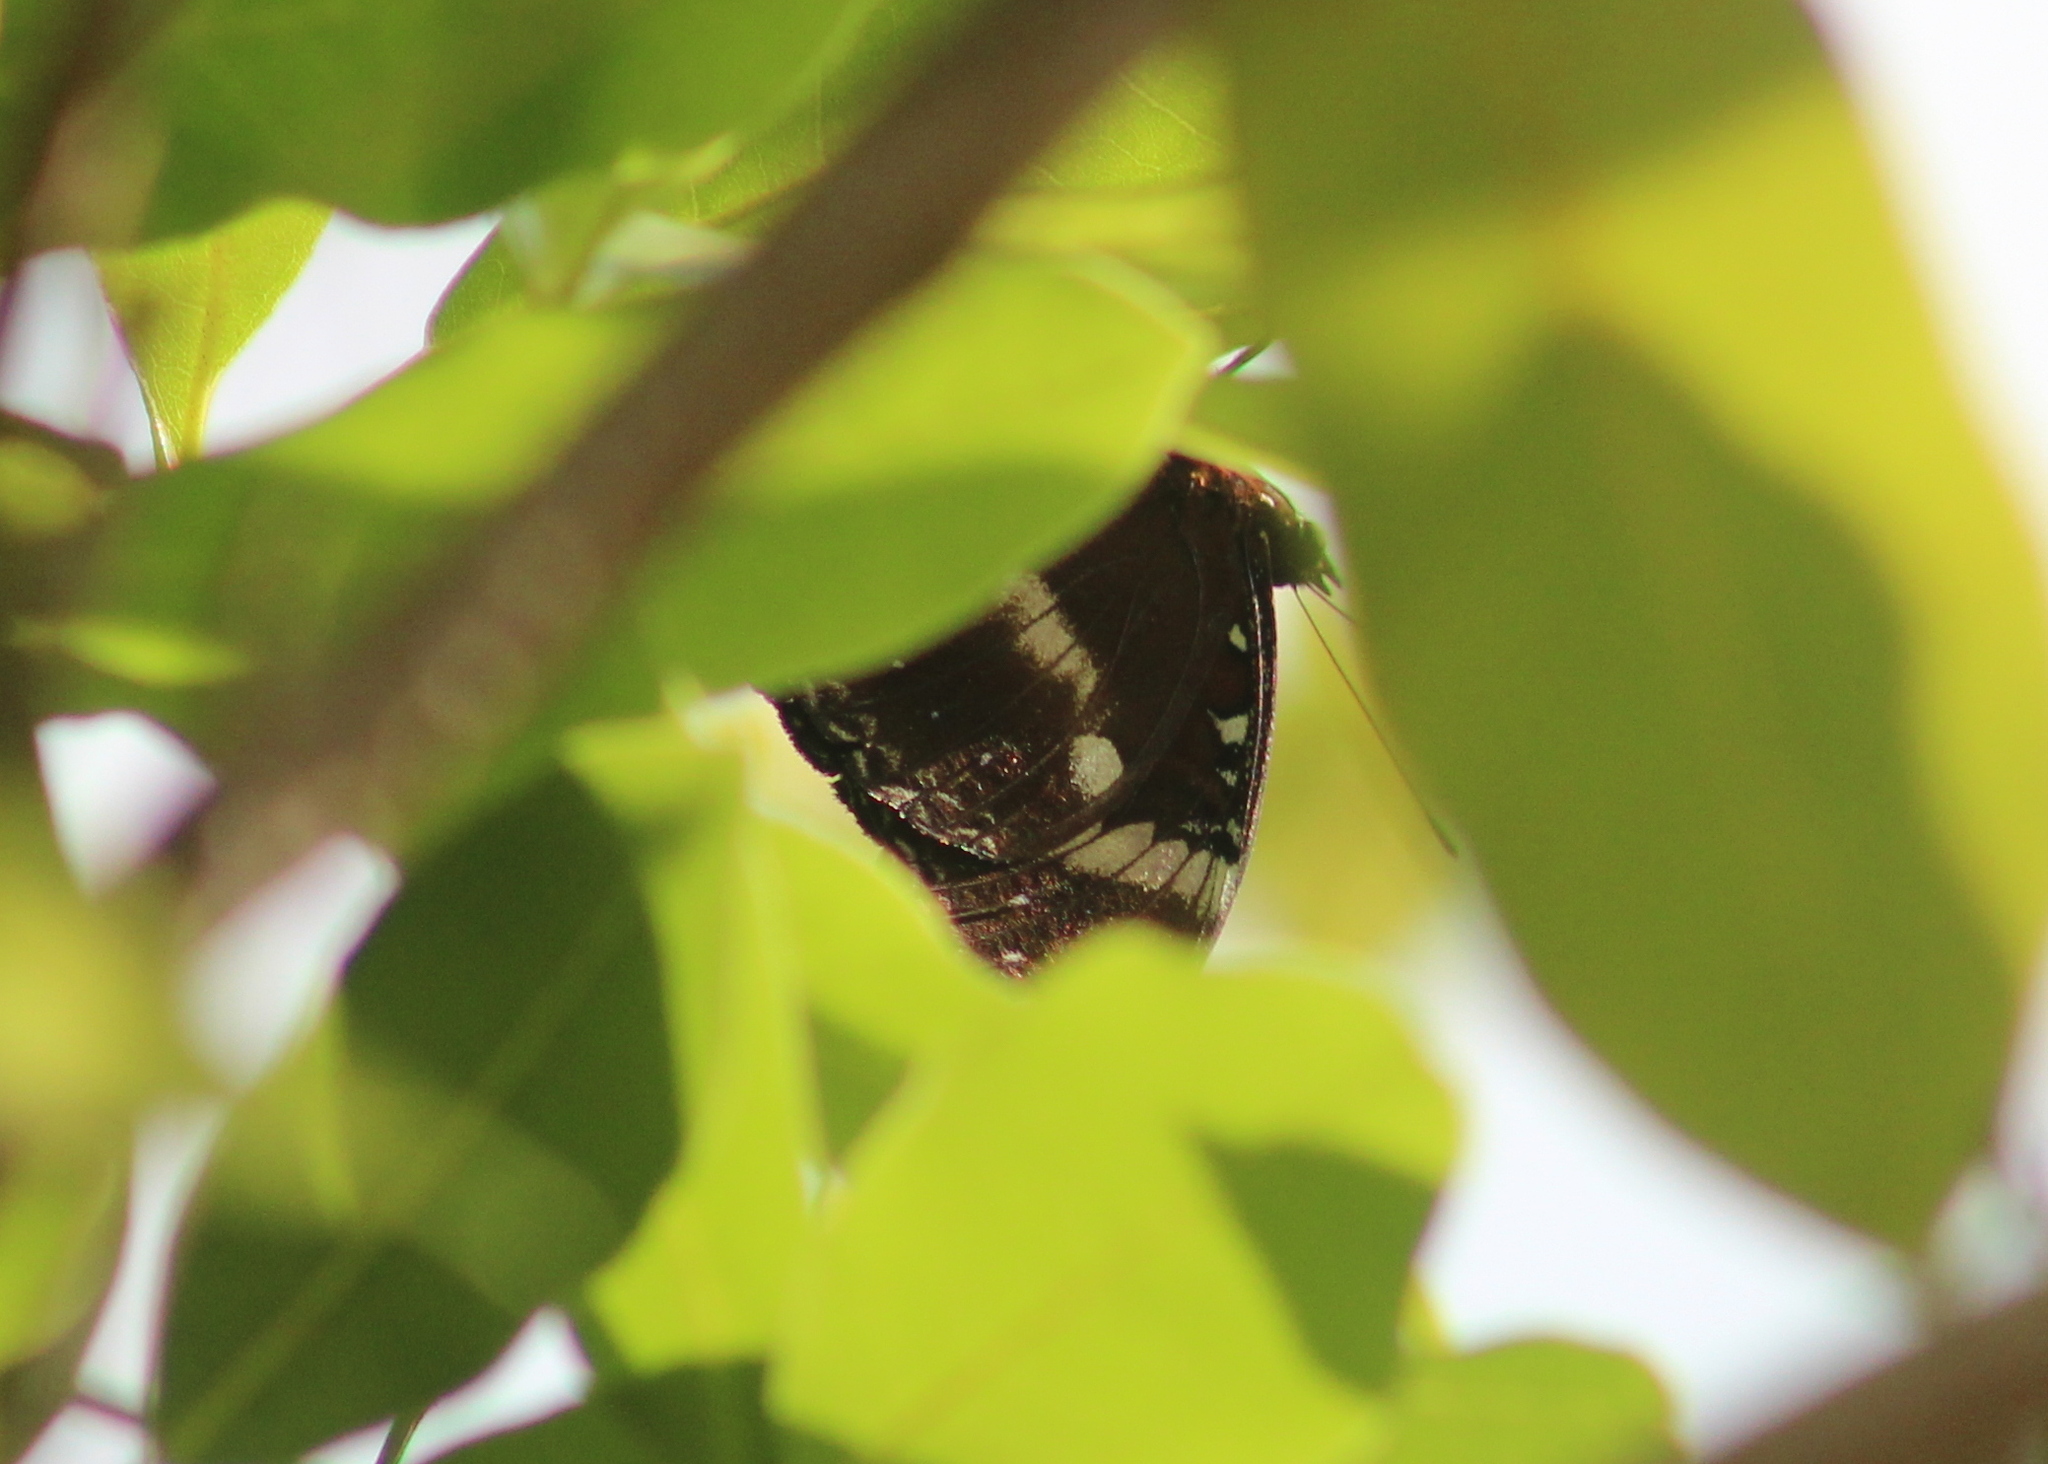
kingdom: Animalia
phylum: Arthropoda
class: Insecta
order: Lepidoptera
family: Nymphalidae
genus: Hypolimnas
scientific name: Hypolimnas bolina
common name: Great eggfly
